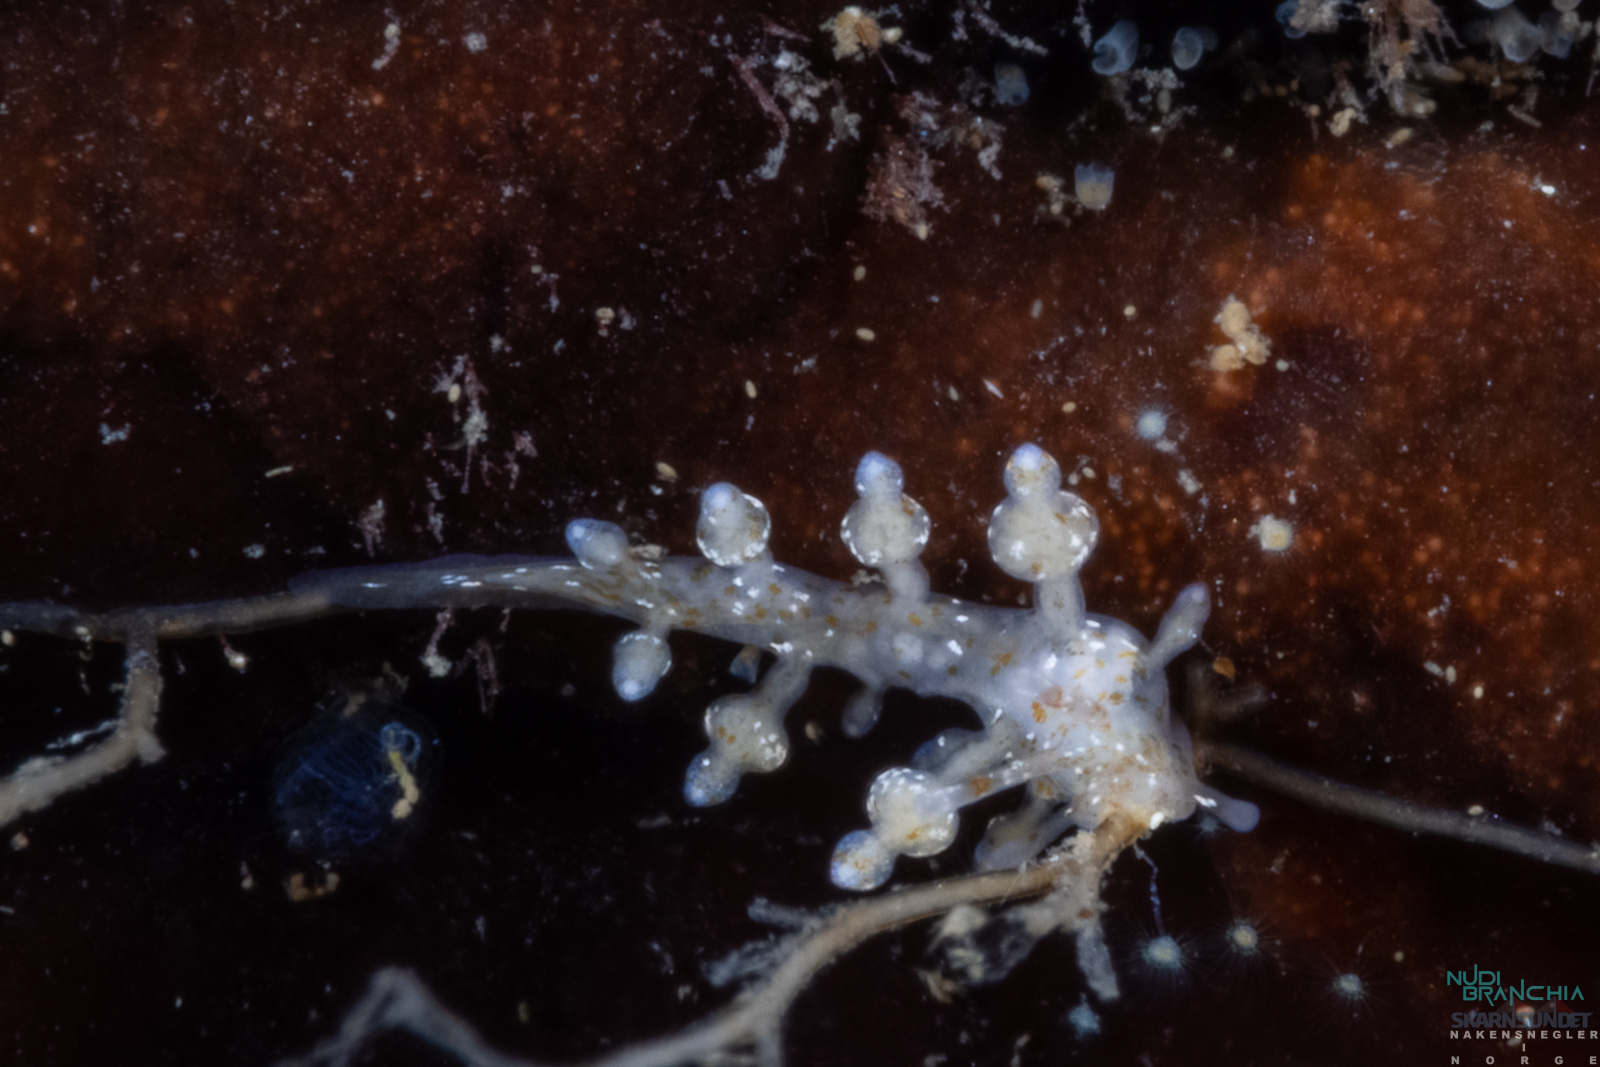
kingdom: Animalia
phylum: Mollusca
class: Gastropoda
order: Nudibranchia
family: Eubranchidae
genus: Eubranchus
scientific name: Eubranchus exiguus
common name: Balloon aeolis
